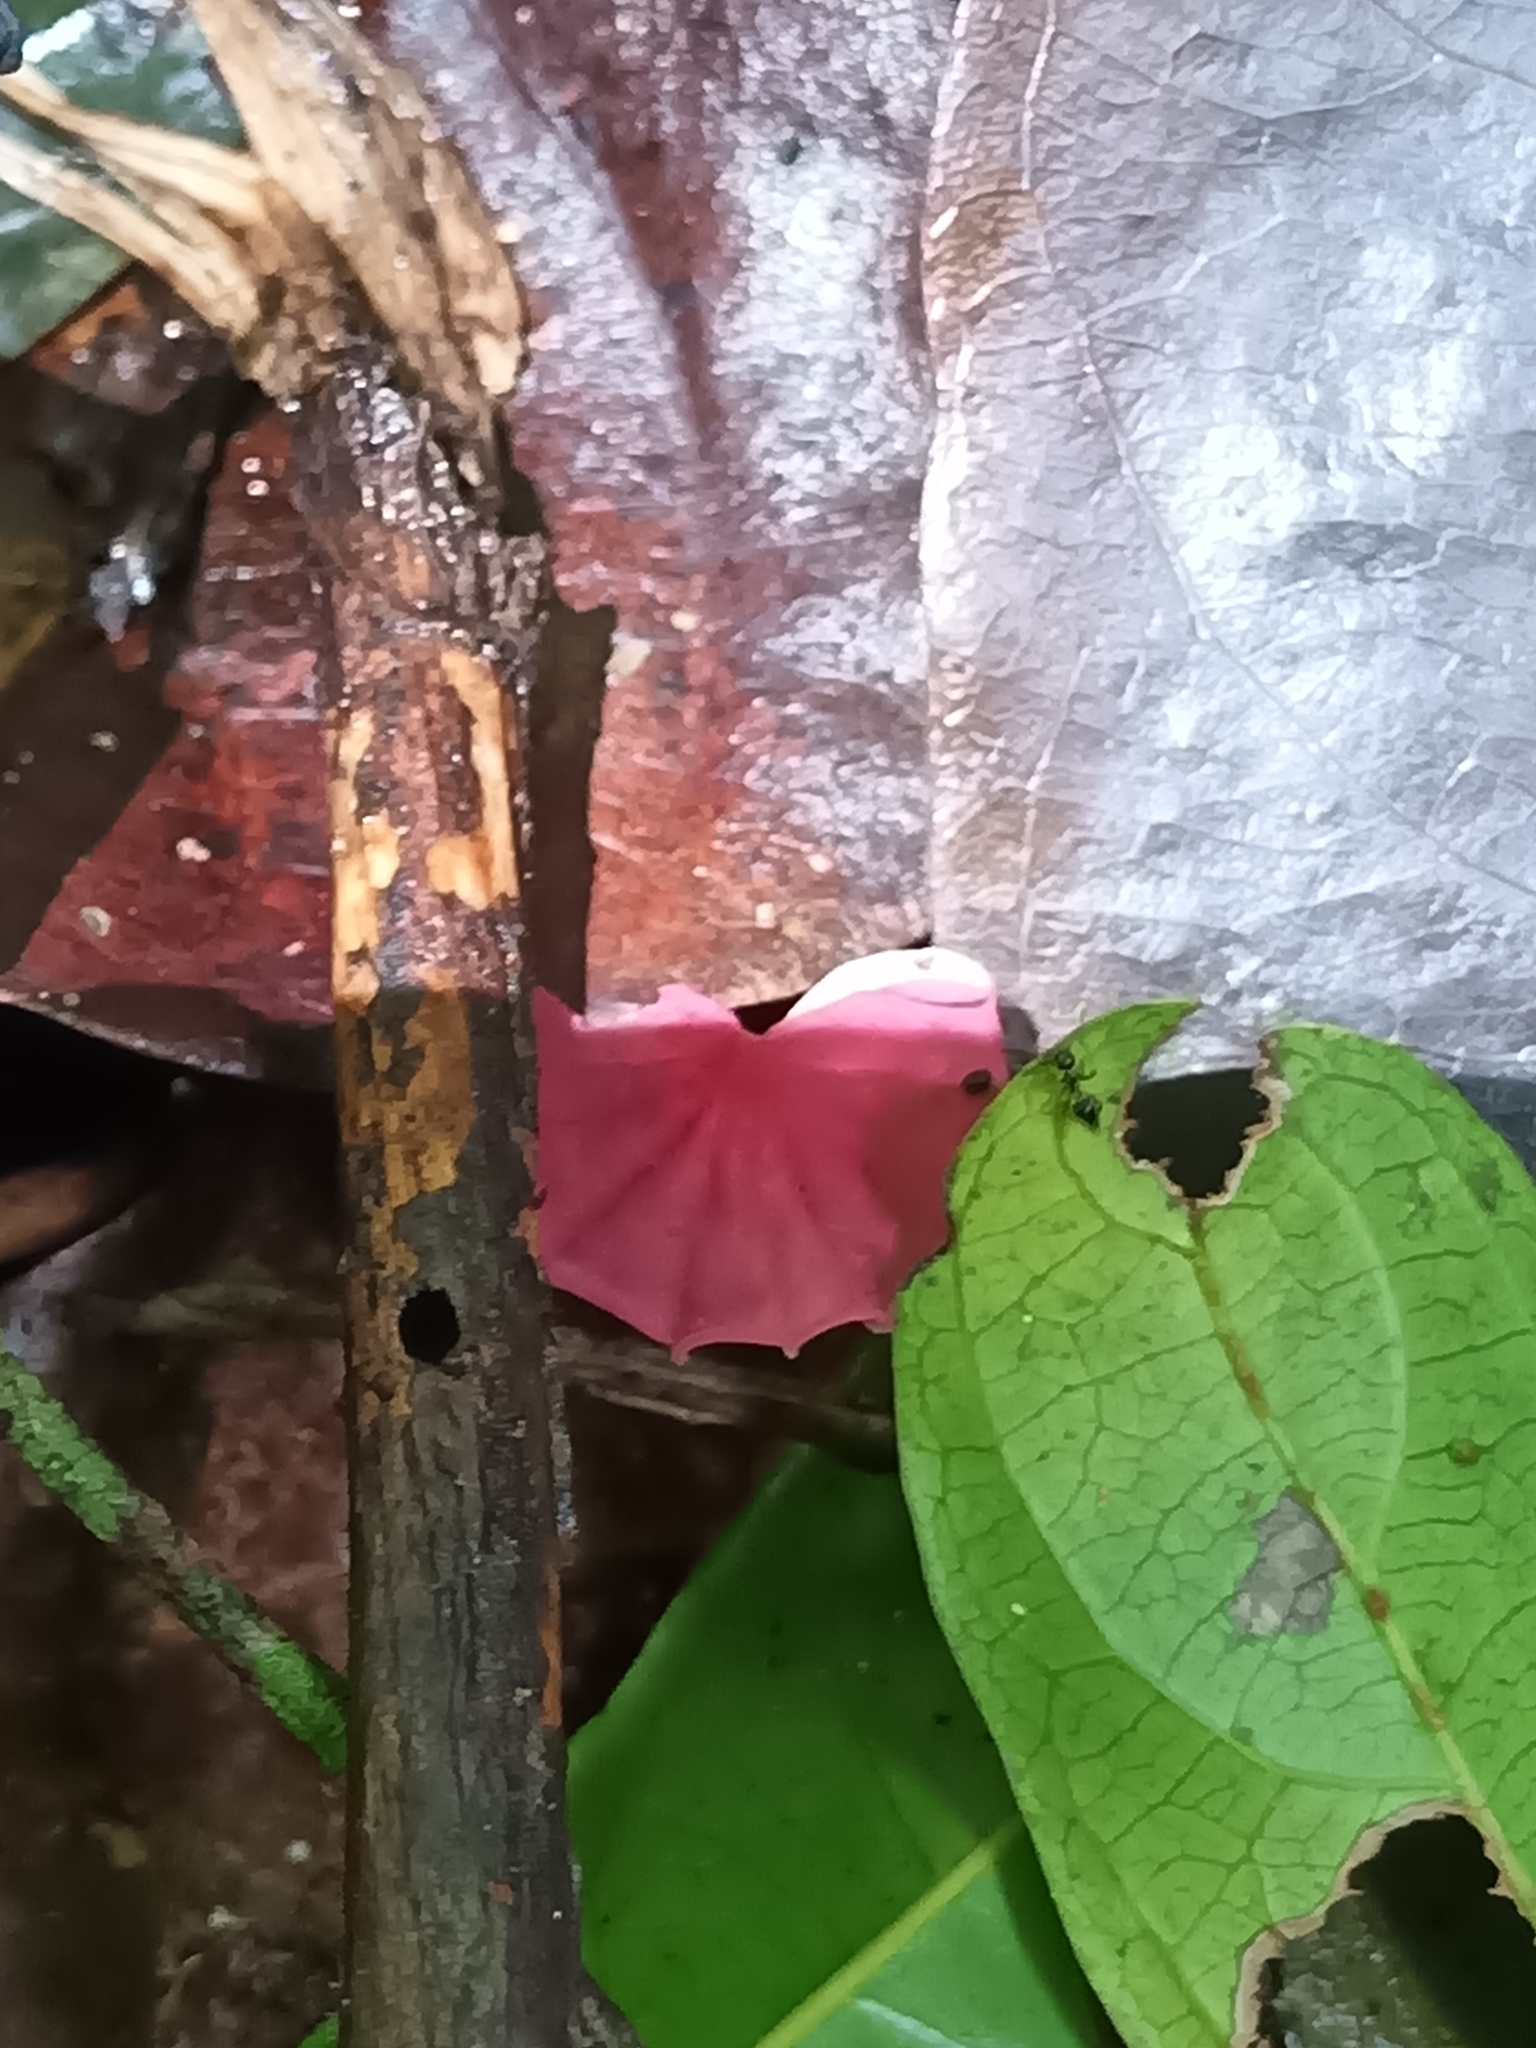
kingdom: Fungi
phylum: Basidiomycota
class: Agaricomycetes
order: Agaricales
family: Marasmiaceae
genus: Marasmius
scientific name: Marasmius haematocephalus
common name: Purple pinwheel
